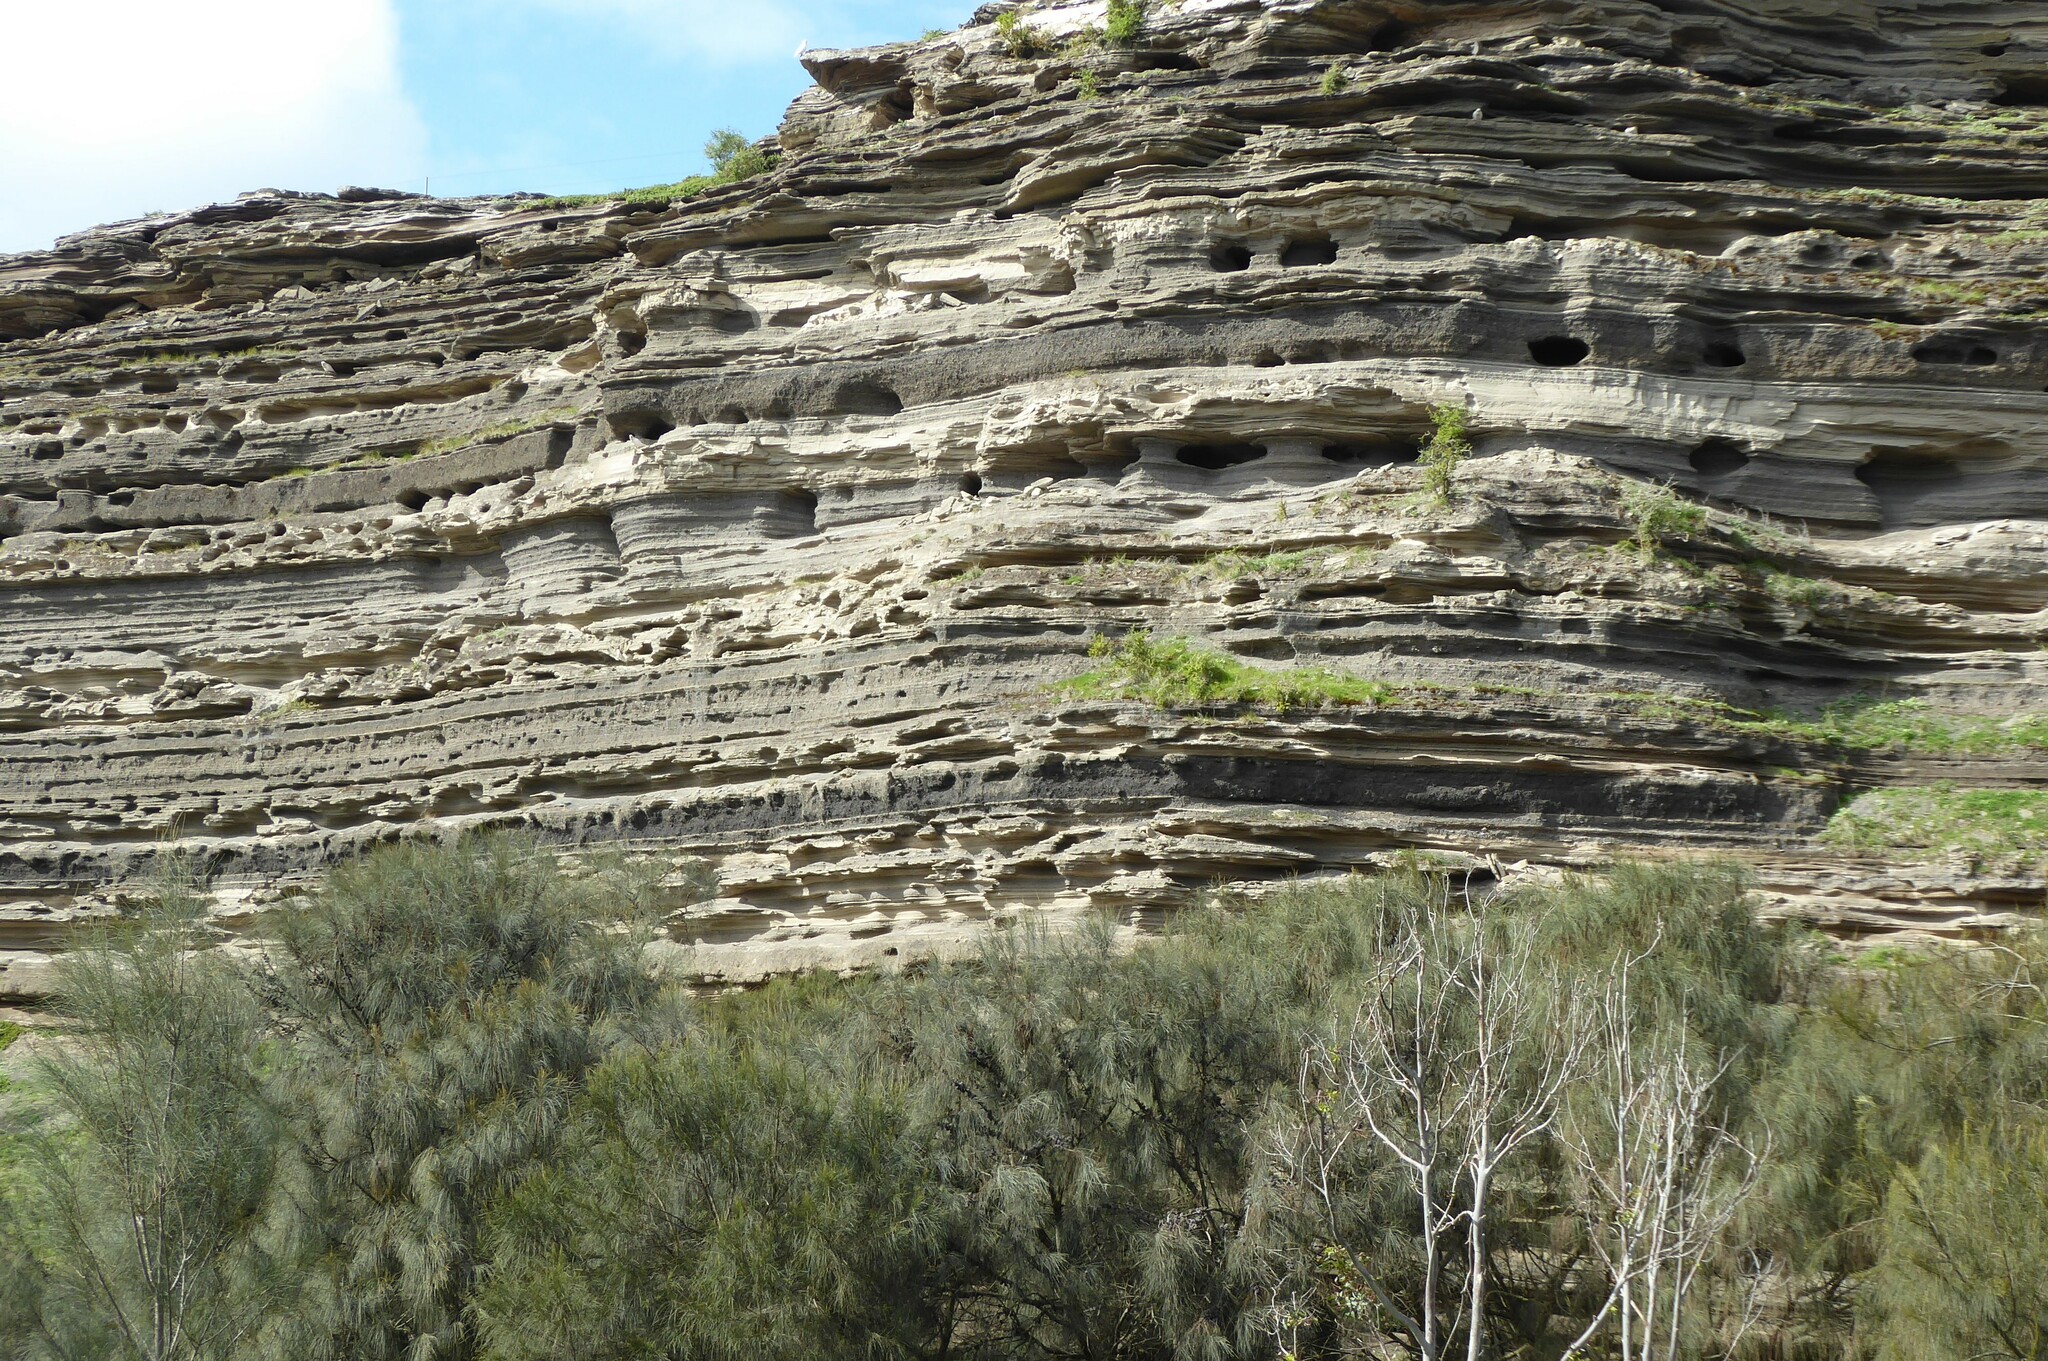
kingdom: Animalia
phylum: Chordata
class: Aves
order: Psittaciformes
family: Psittacidae
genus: Cacatua
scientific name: Cacatua tenuirostris
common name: Long-billed corella
